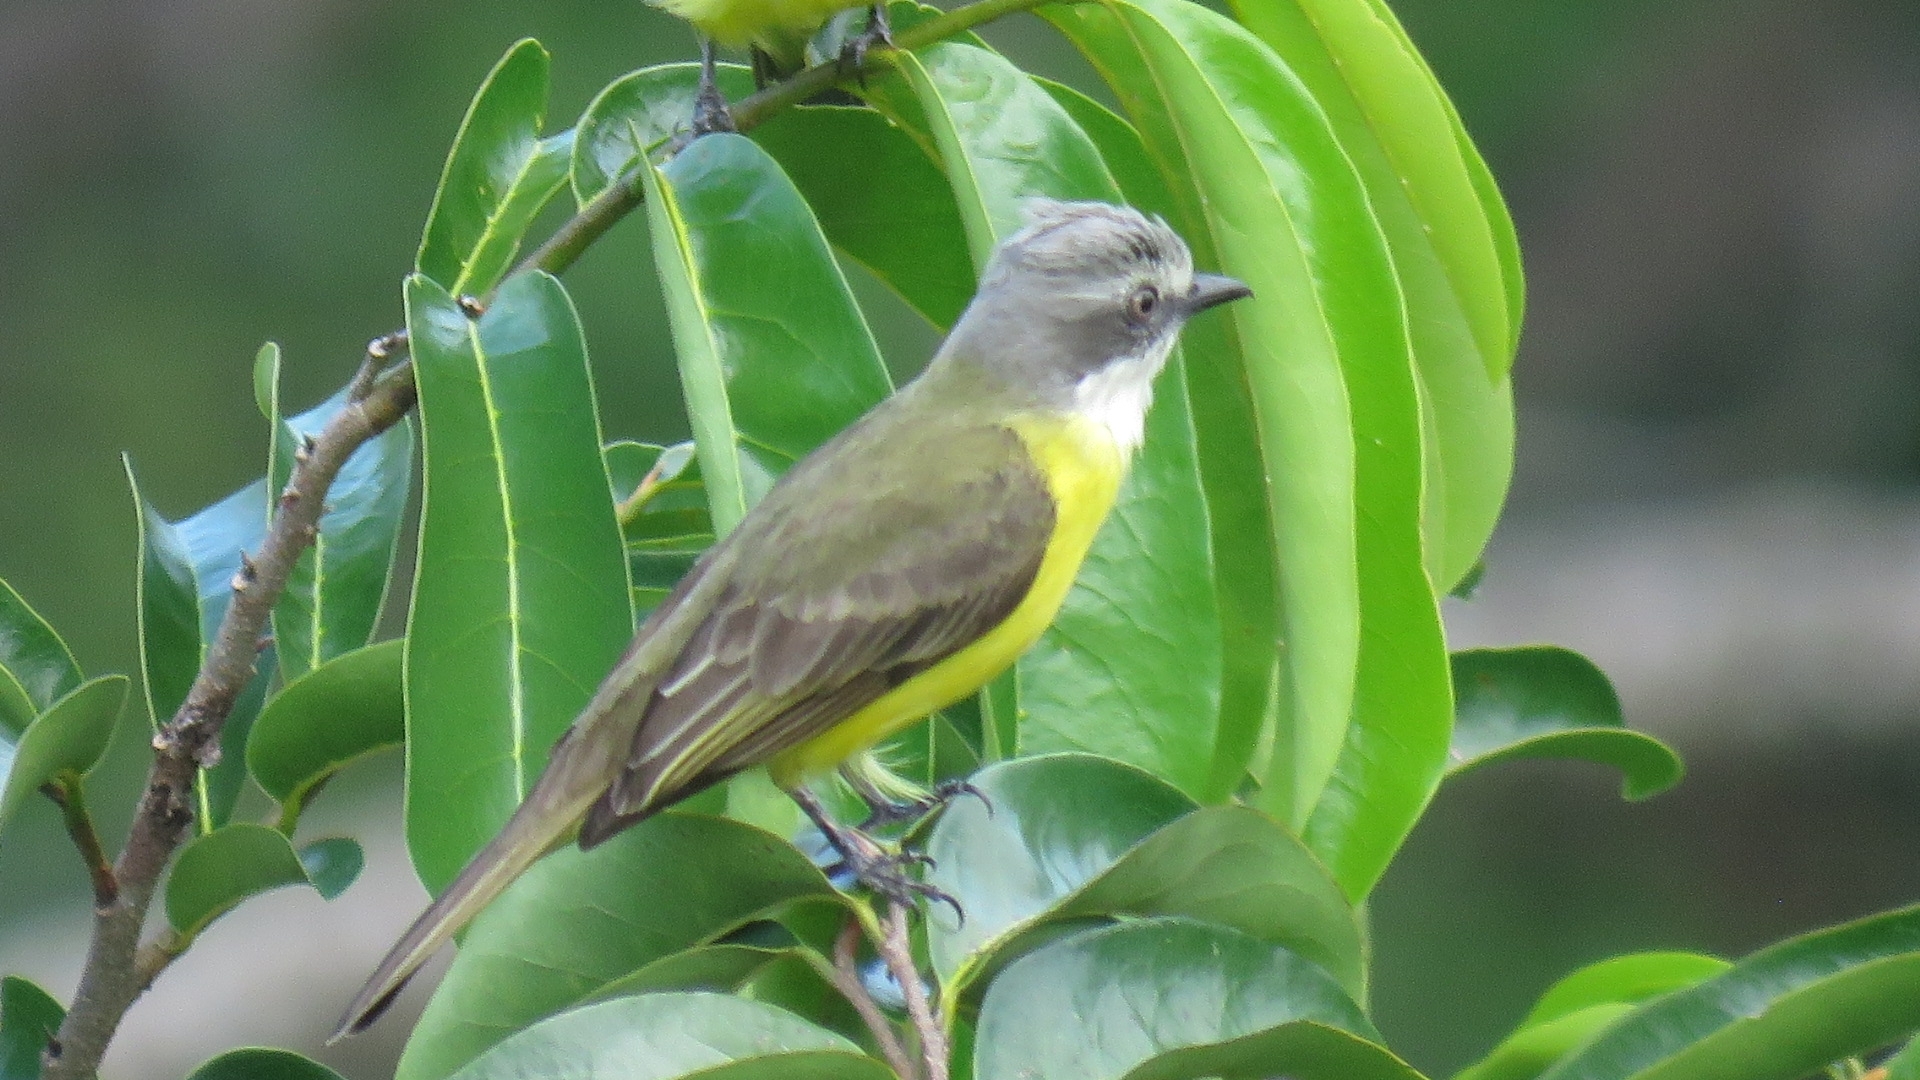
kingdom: Animalia
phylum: Chordata
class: Aves
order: Passeriformes
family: Tyrannidae
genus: Myiozetetes
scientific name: Myiozetetes granadensis
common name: Gray-capped flycatcher
